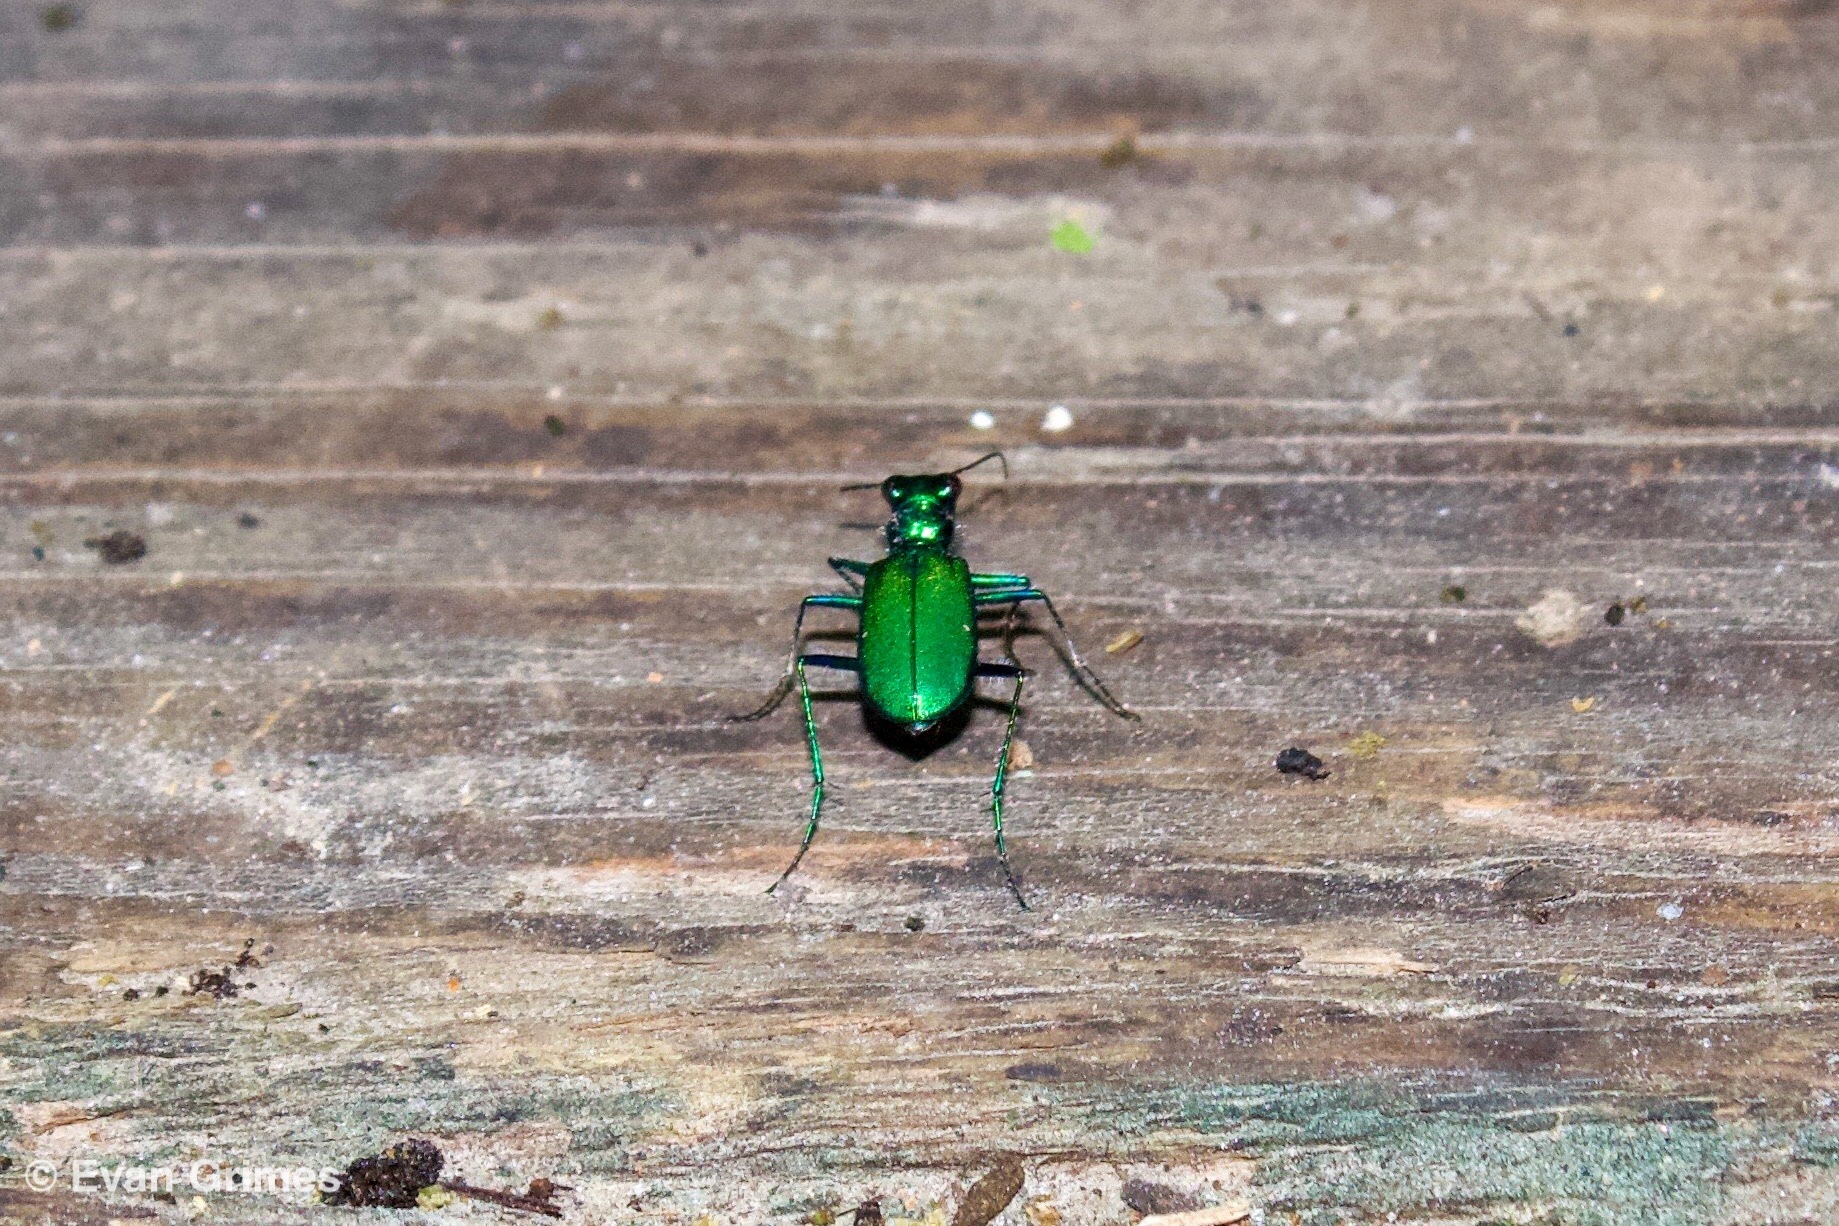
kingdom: Animalia
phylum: Arthropoda
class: Insecta
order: Coleoptera
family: Carabidae
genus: Cicindela
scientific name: Cicindela sexguttata
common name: Six-spotted tiger beetle
